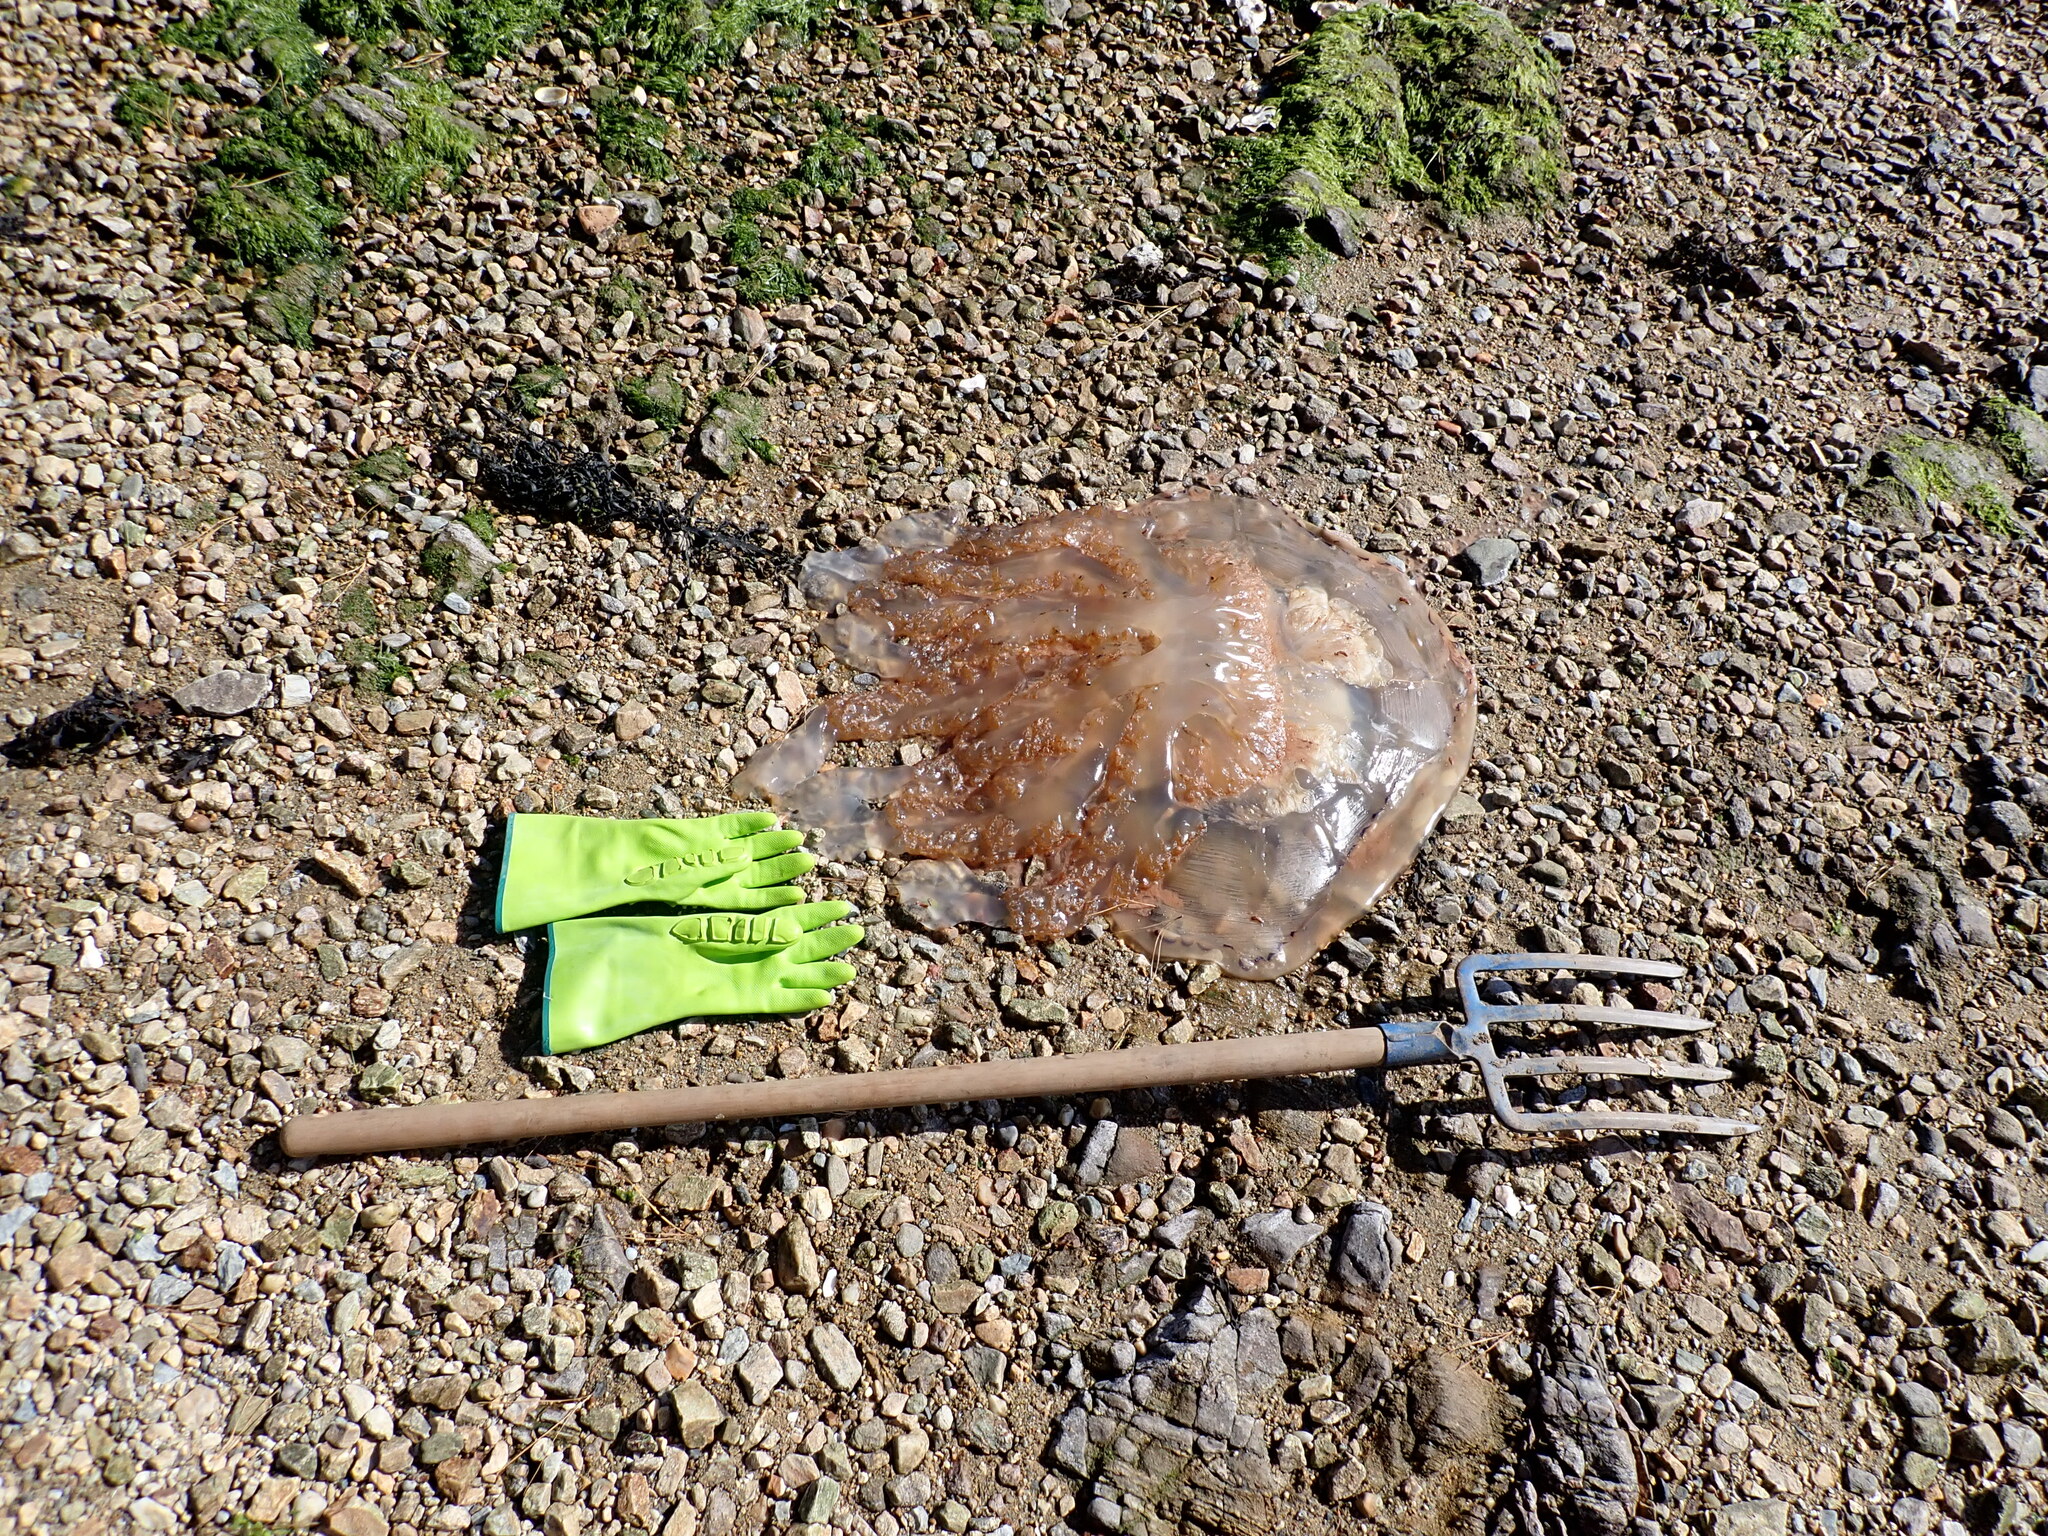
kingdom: Animalia
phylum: Cnidaria
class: Scyphozoa
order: Rhizostomeae
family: Rhizostomatidae
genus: Rhizostoma
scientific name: Rhizostoma octopus
